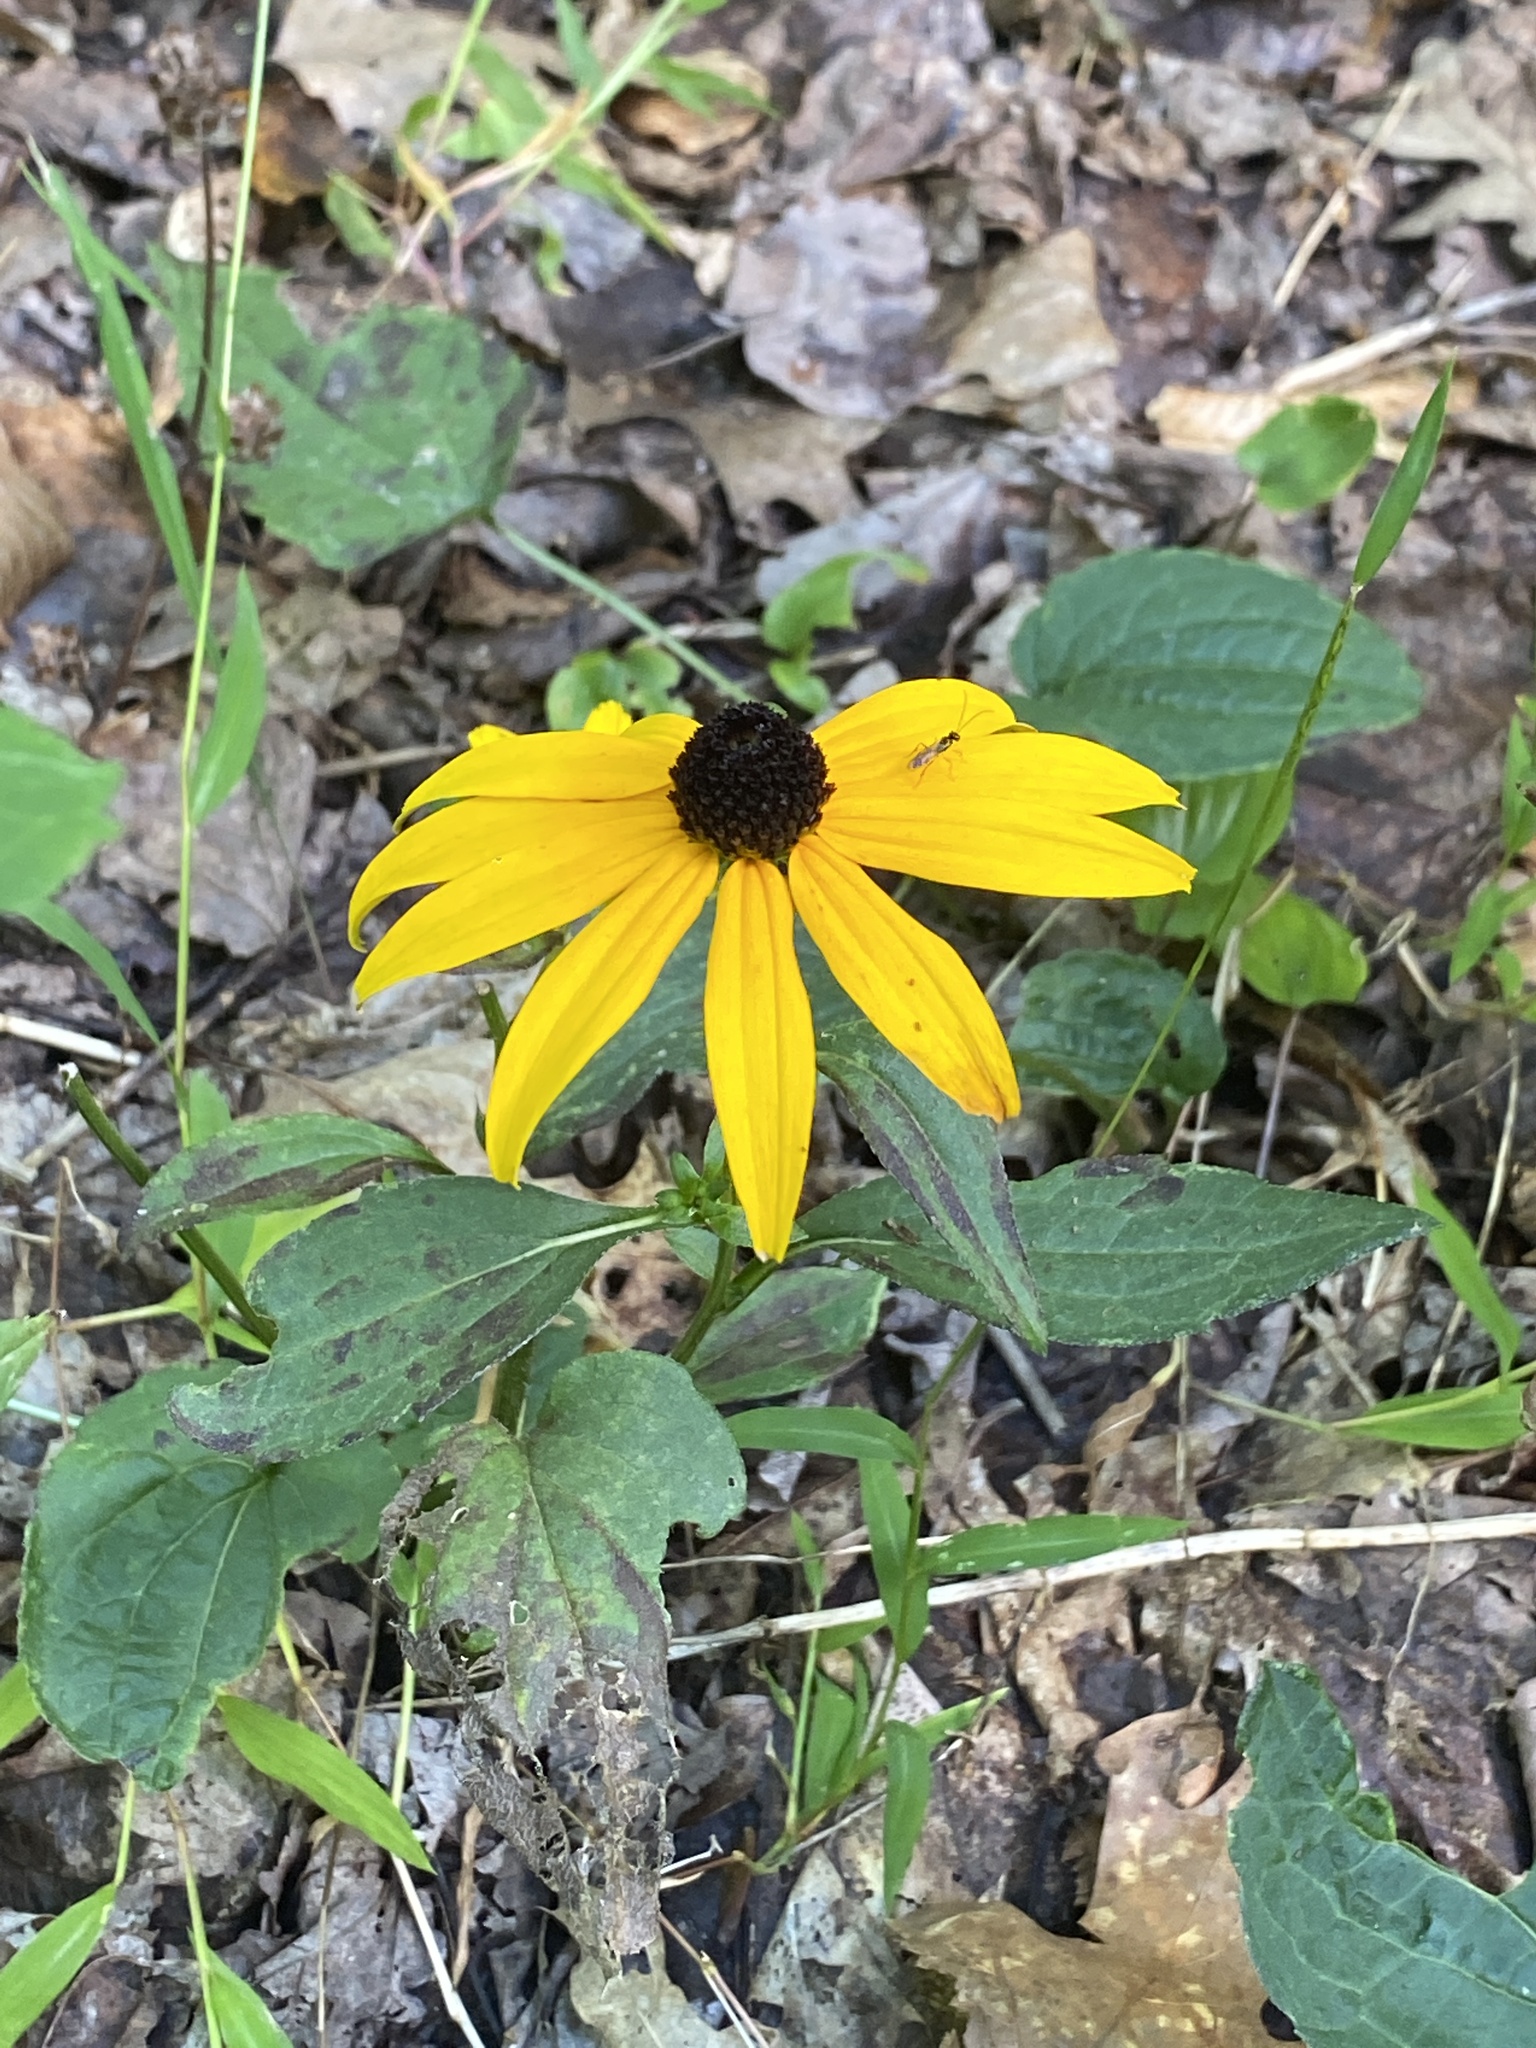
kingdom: Plantae
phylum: Tracheophyta
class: Magnoliopsida
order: Asterales
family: Asteraceae
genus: Rudbeckia
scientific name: Rudbeckia fulgida
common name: Perennial coneflower
